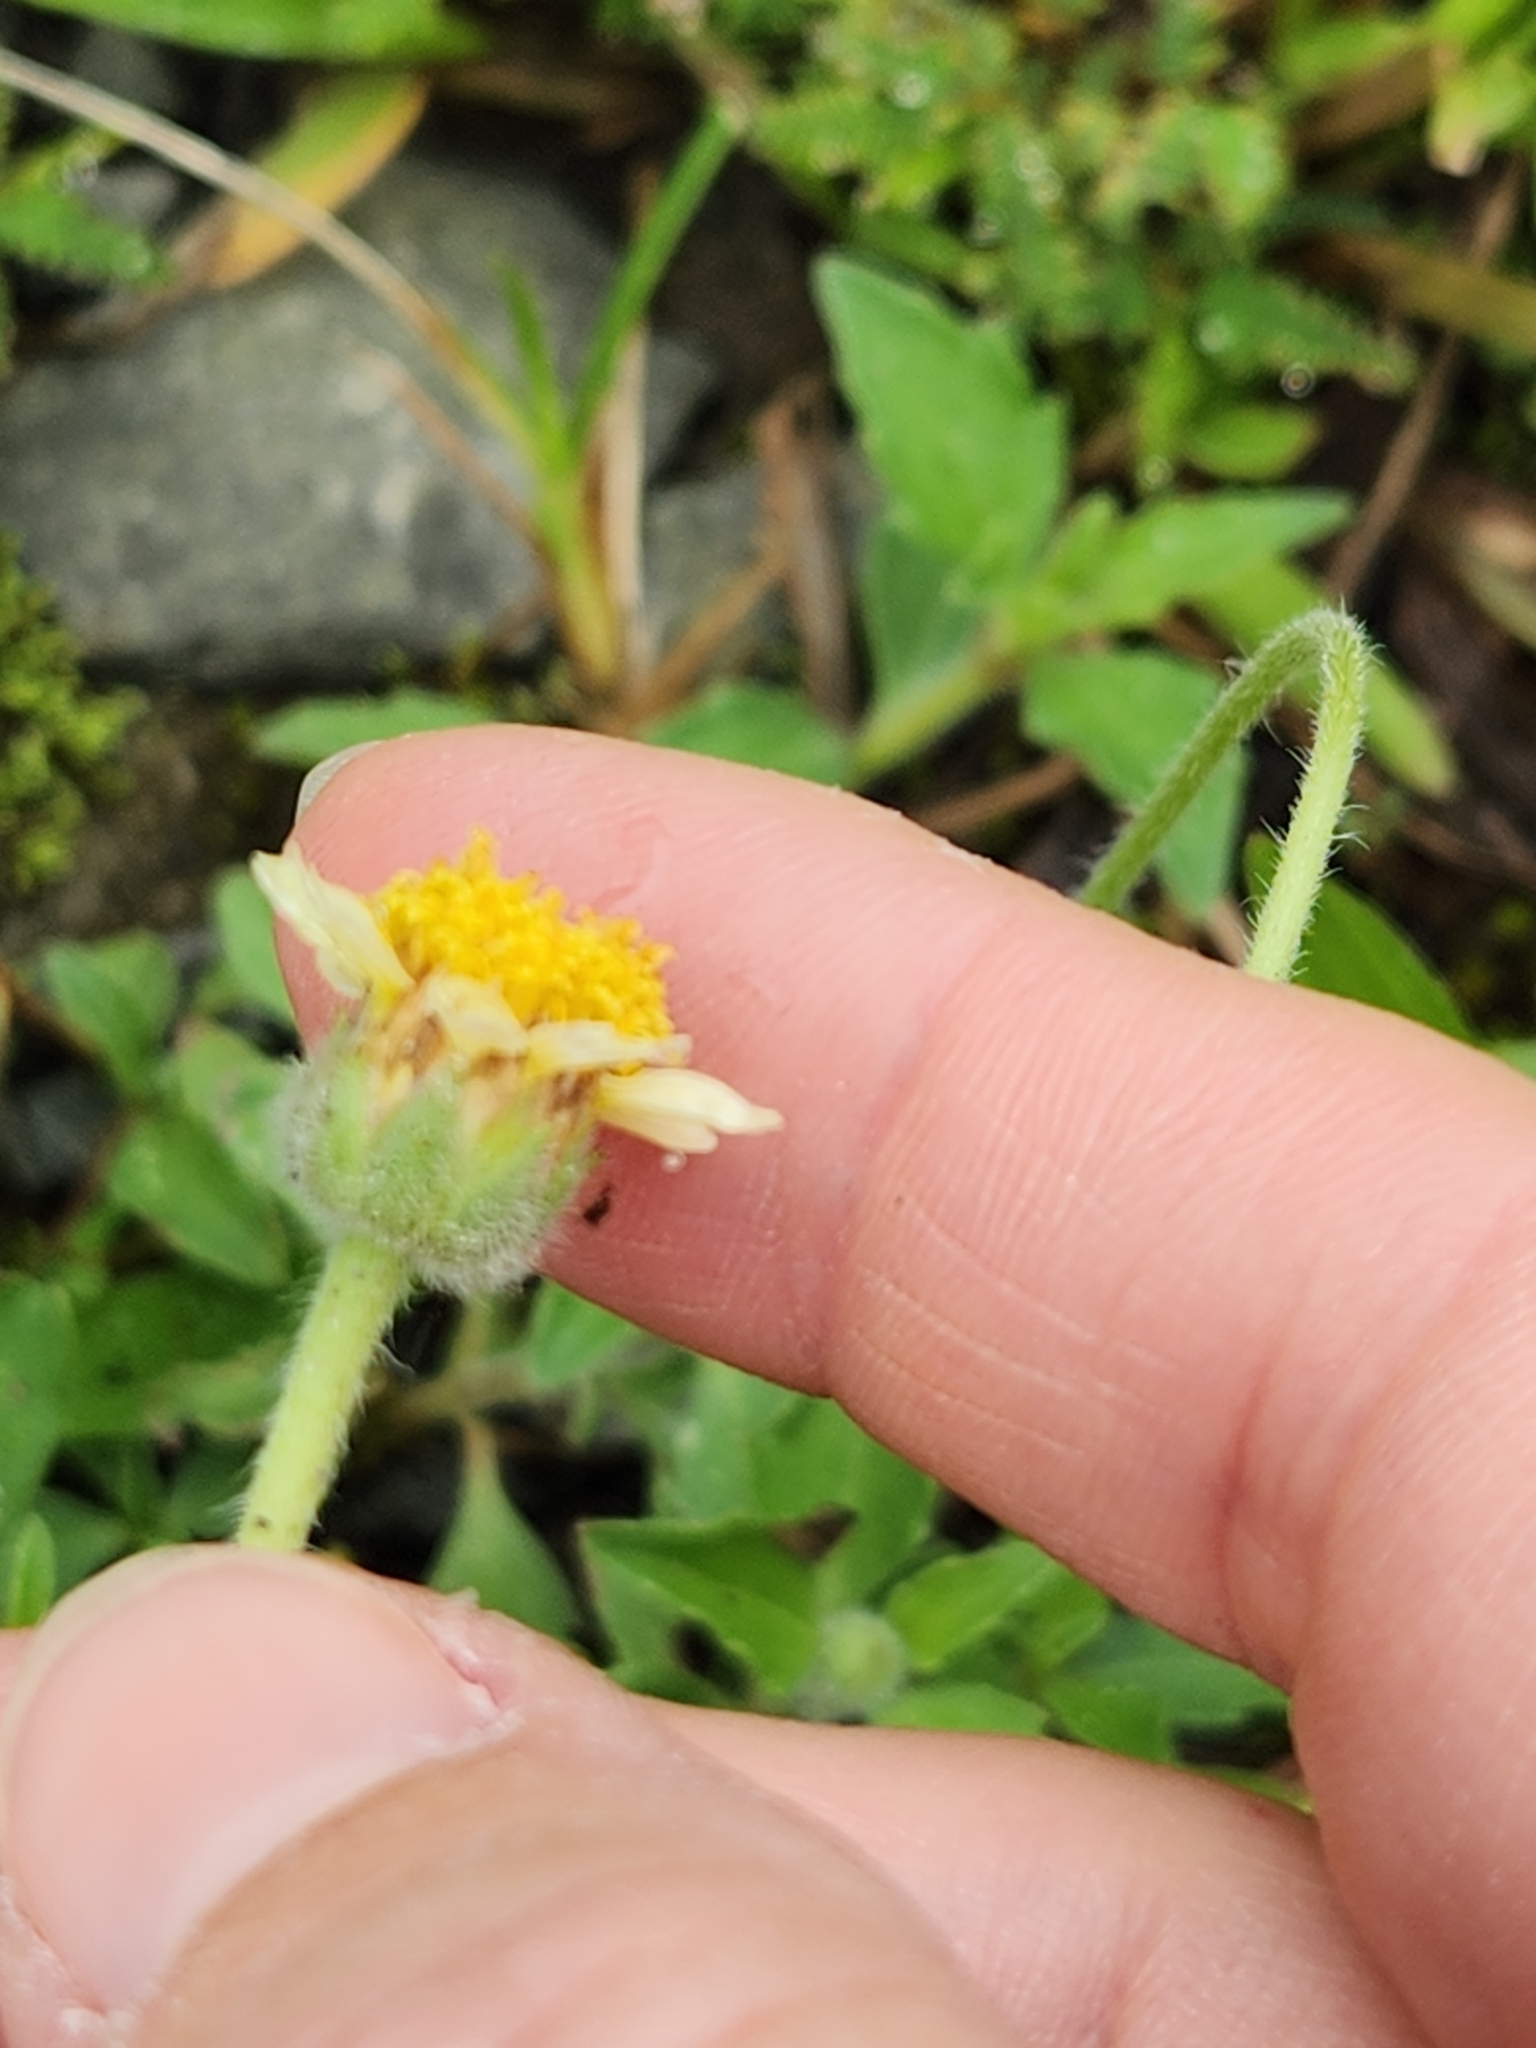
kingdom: Plantae
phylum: Tracheophyta
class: Magnoliopsida
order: Asterales
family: Asteraceae
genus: Tridax
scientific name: Tridax procumbens
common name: Coatbuttons
